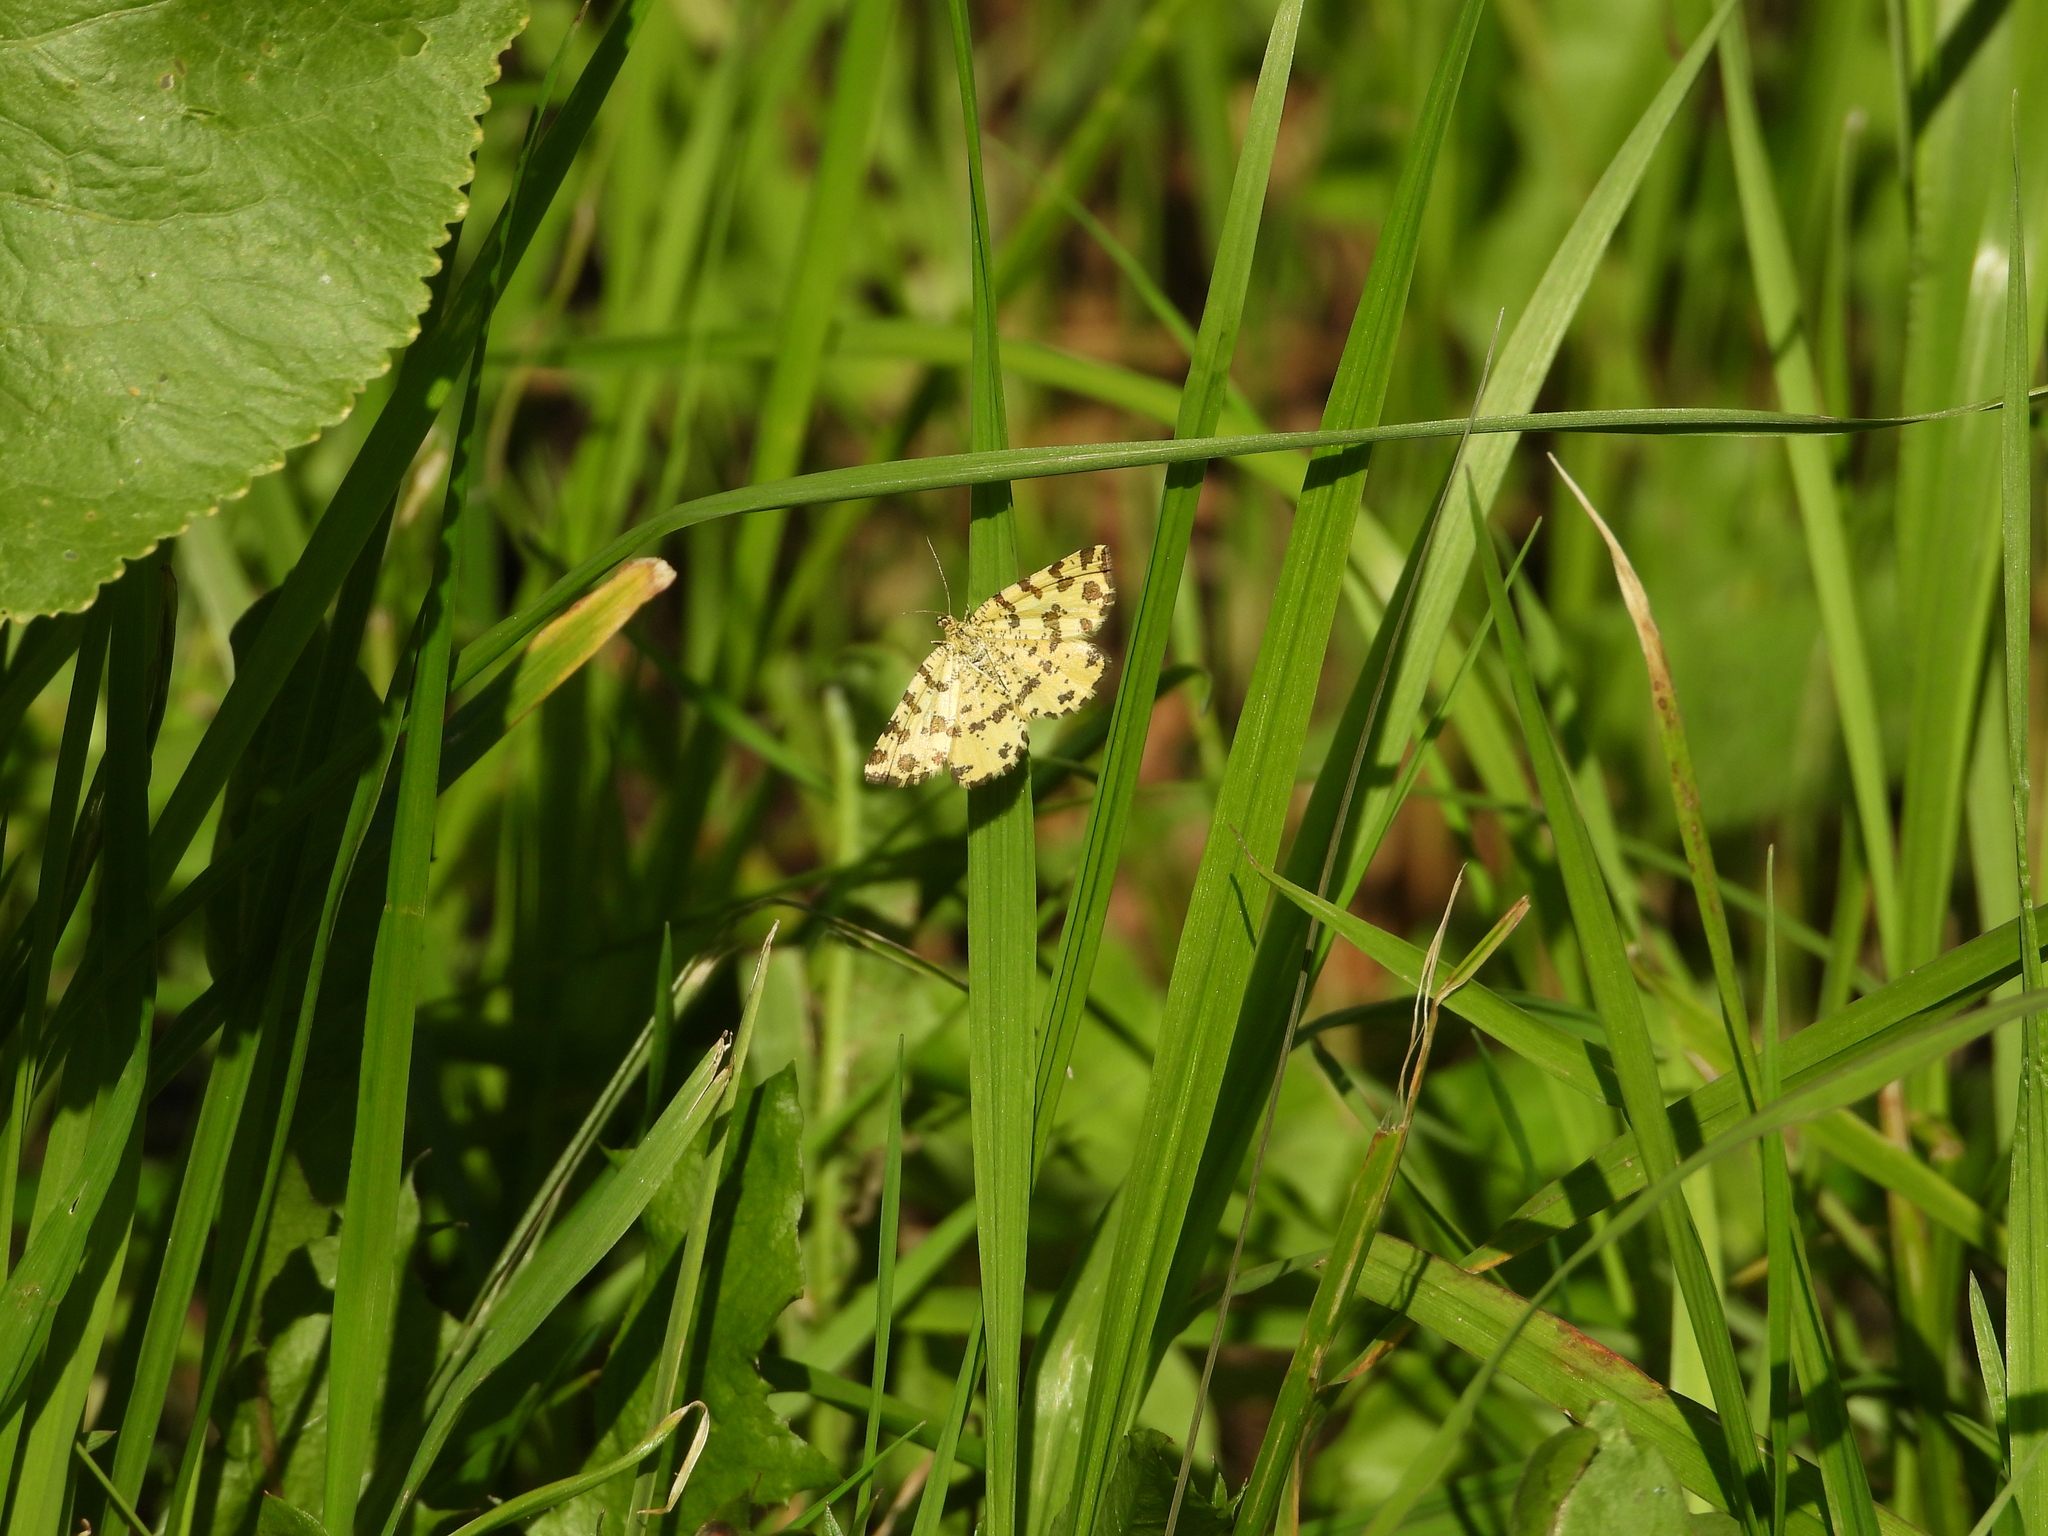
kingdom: Animalia
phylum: Arthropoda
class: Insecta
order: Lepidoptera
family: Geometridae
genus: Pseudopanthera
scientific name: Pseudopanthera macularia
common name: Speckled yellow
